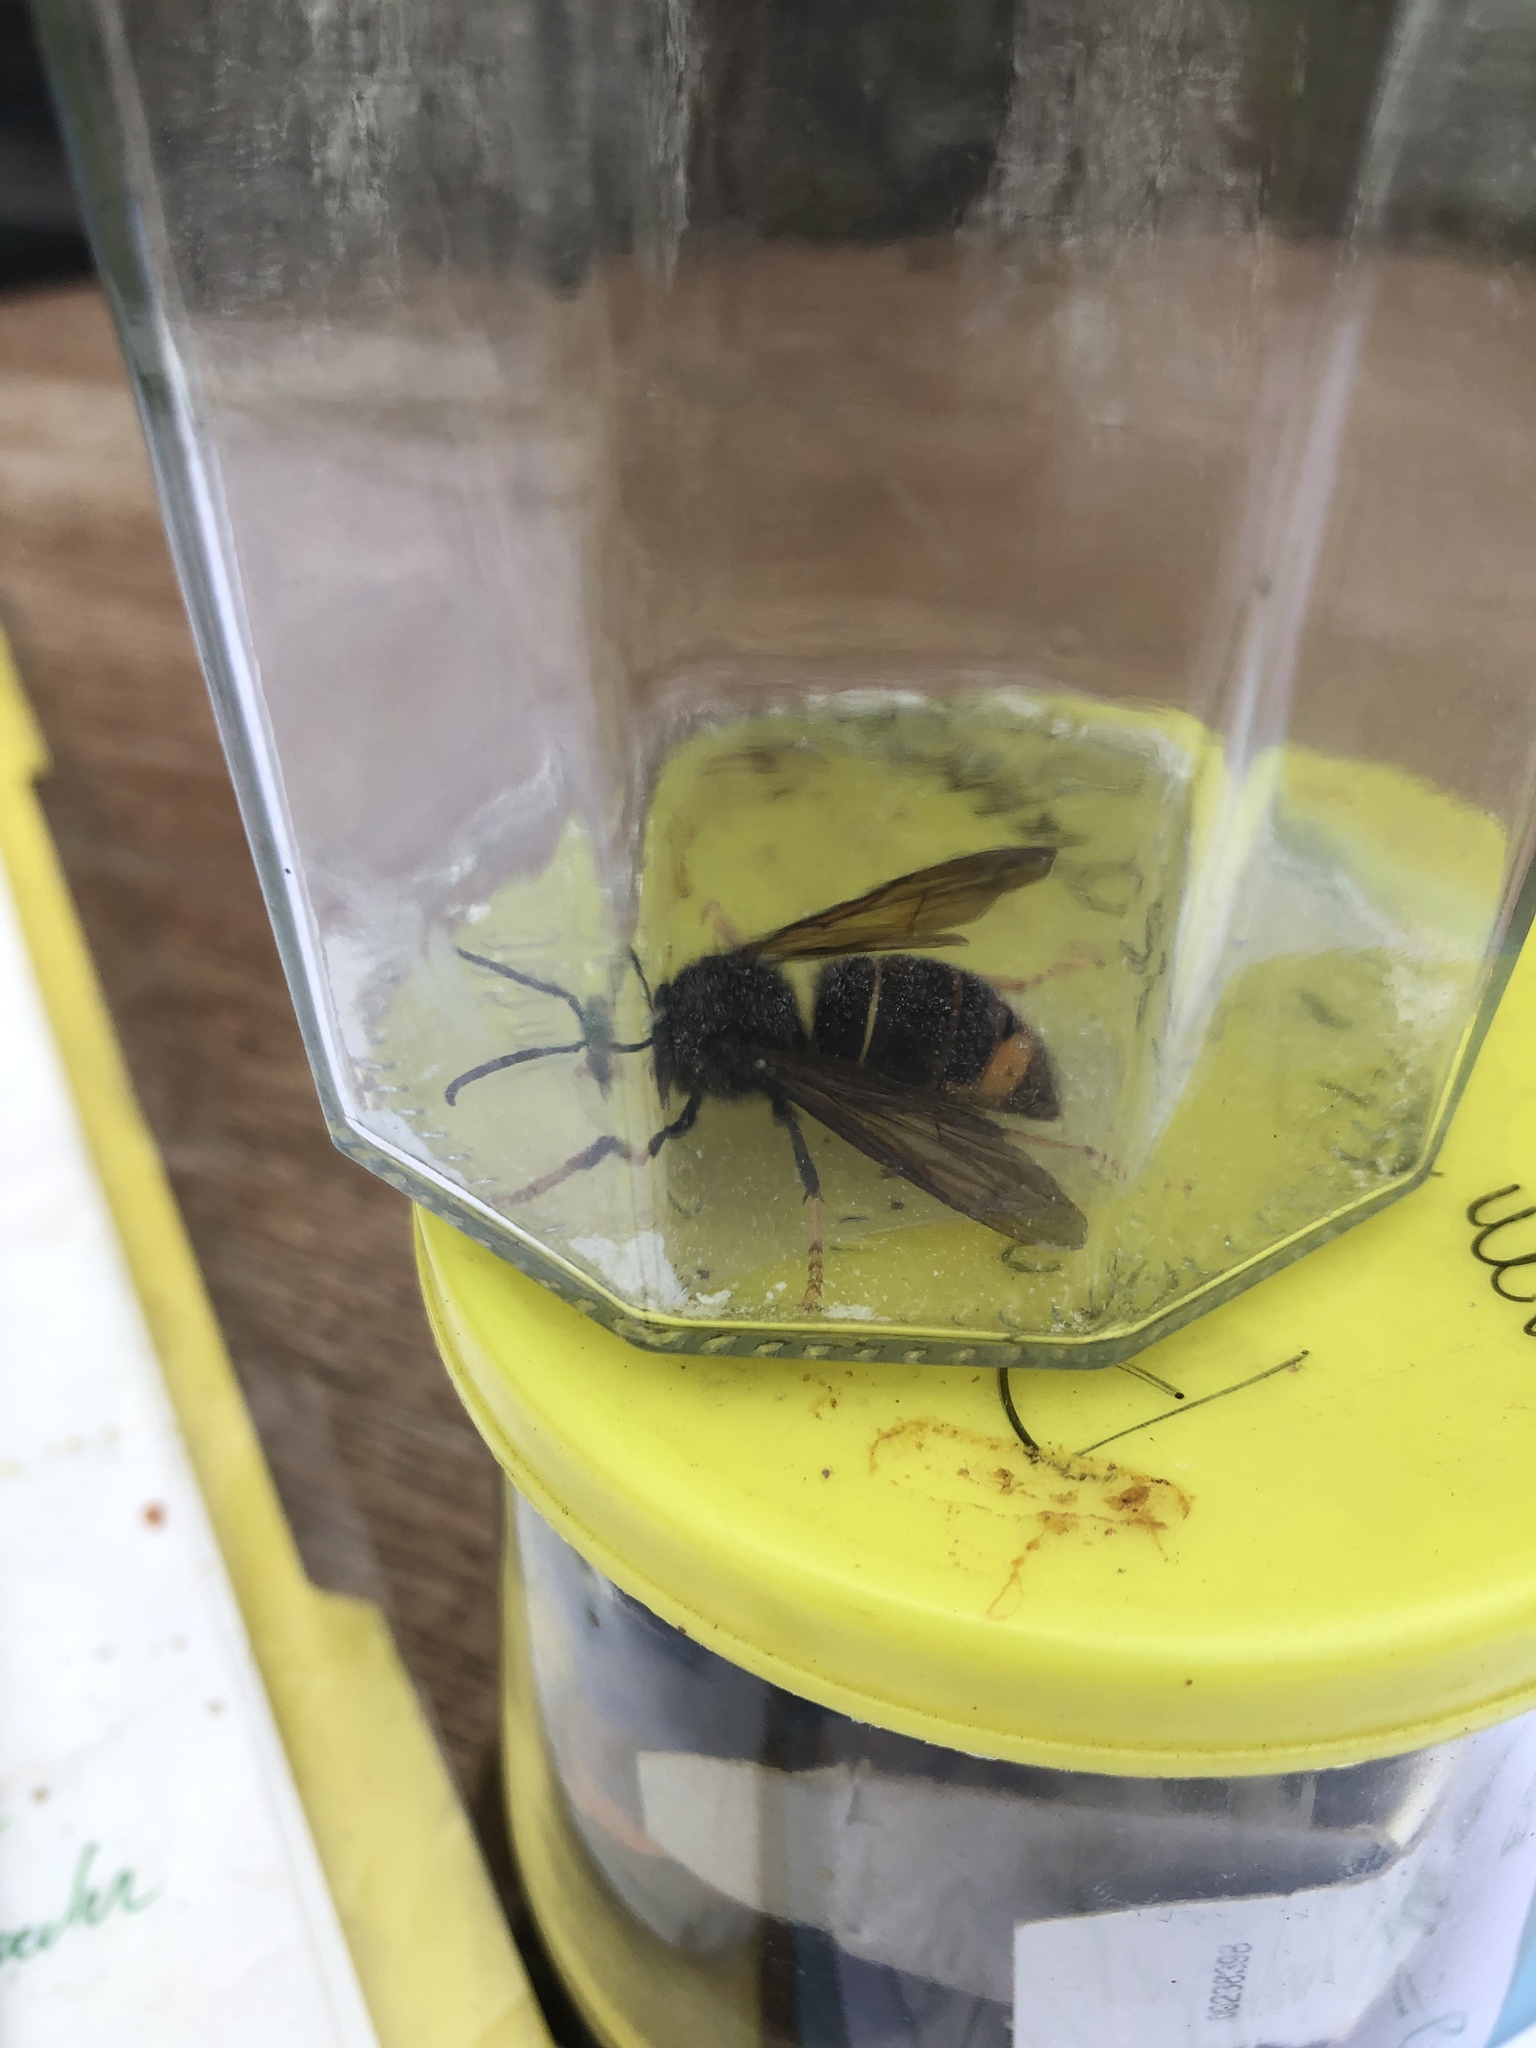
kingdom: Animalia
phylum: Arthropoda
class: Insecta
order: Hymenoptera
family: Vespidae
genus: Vespa
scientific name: Vespa velutina
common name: Asian hornet
